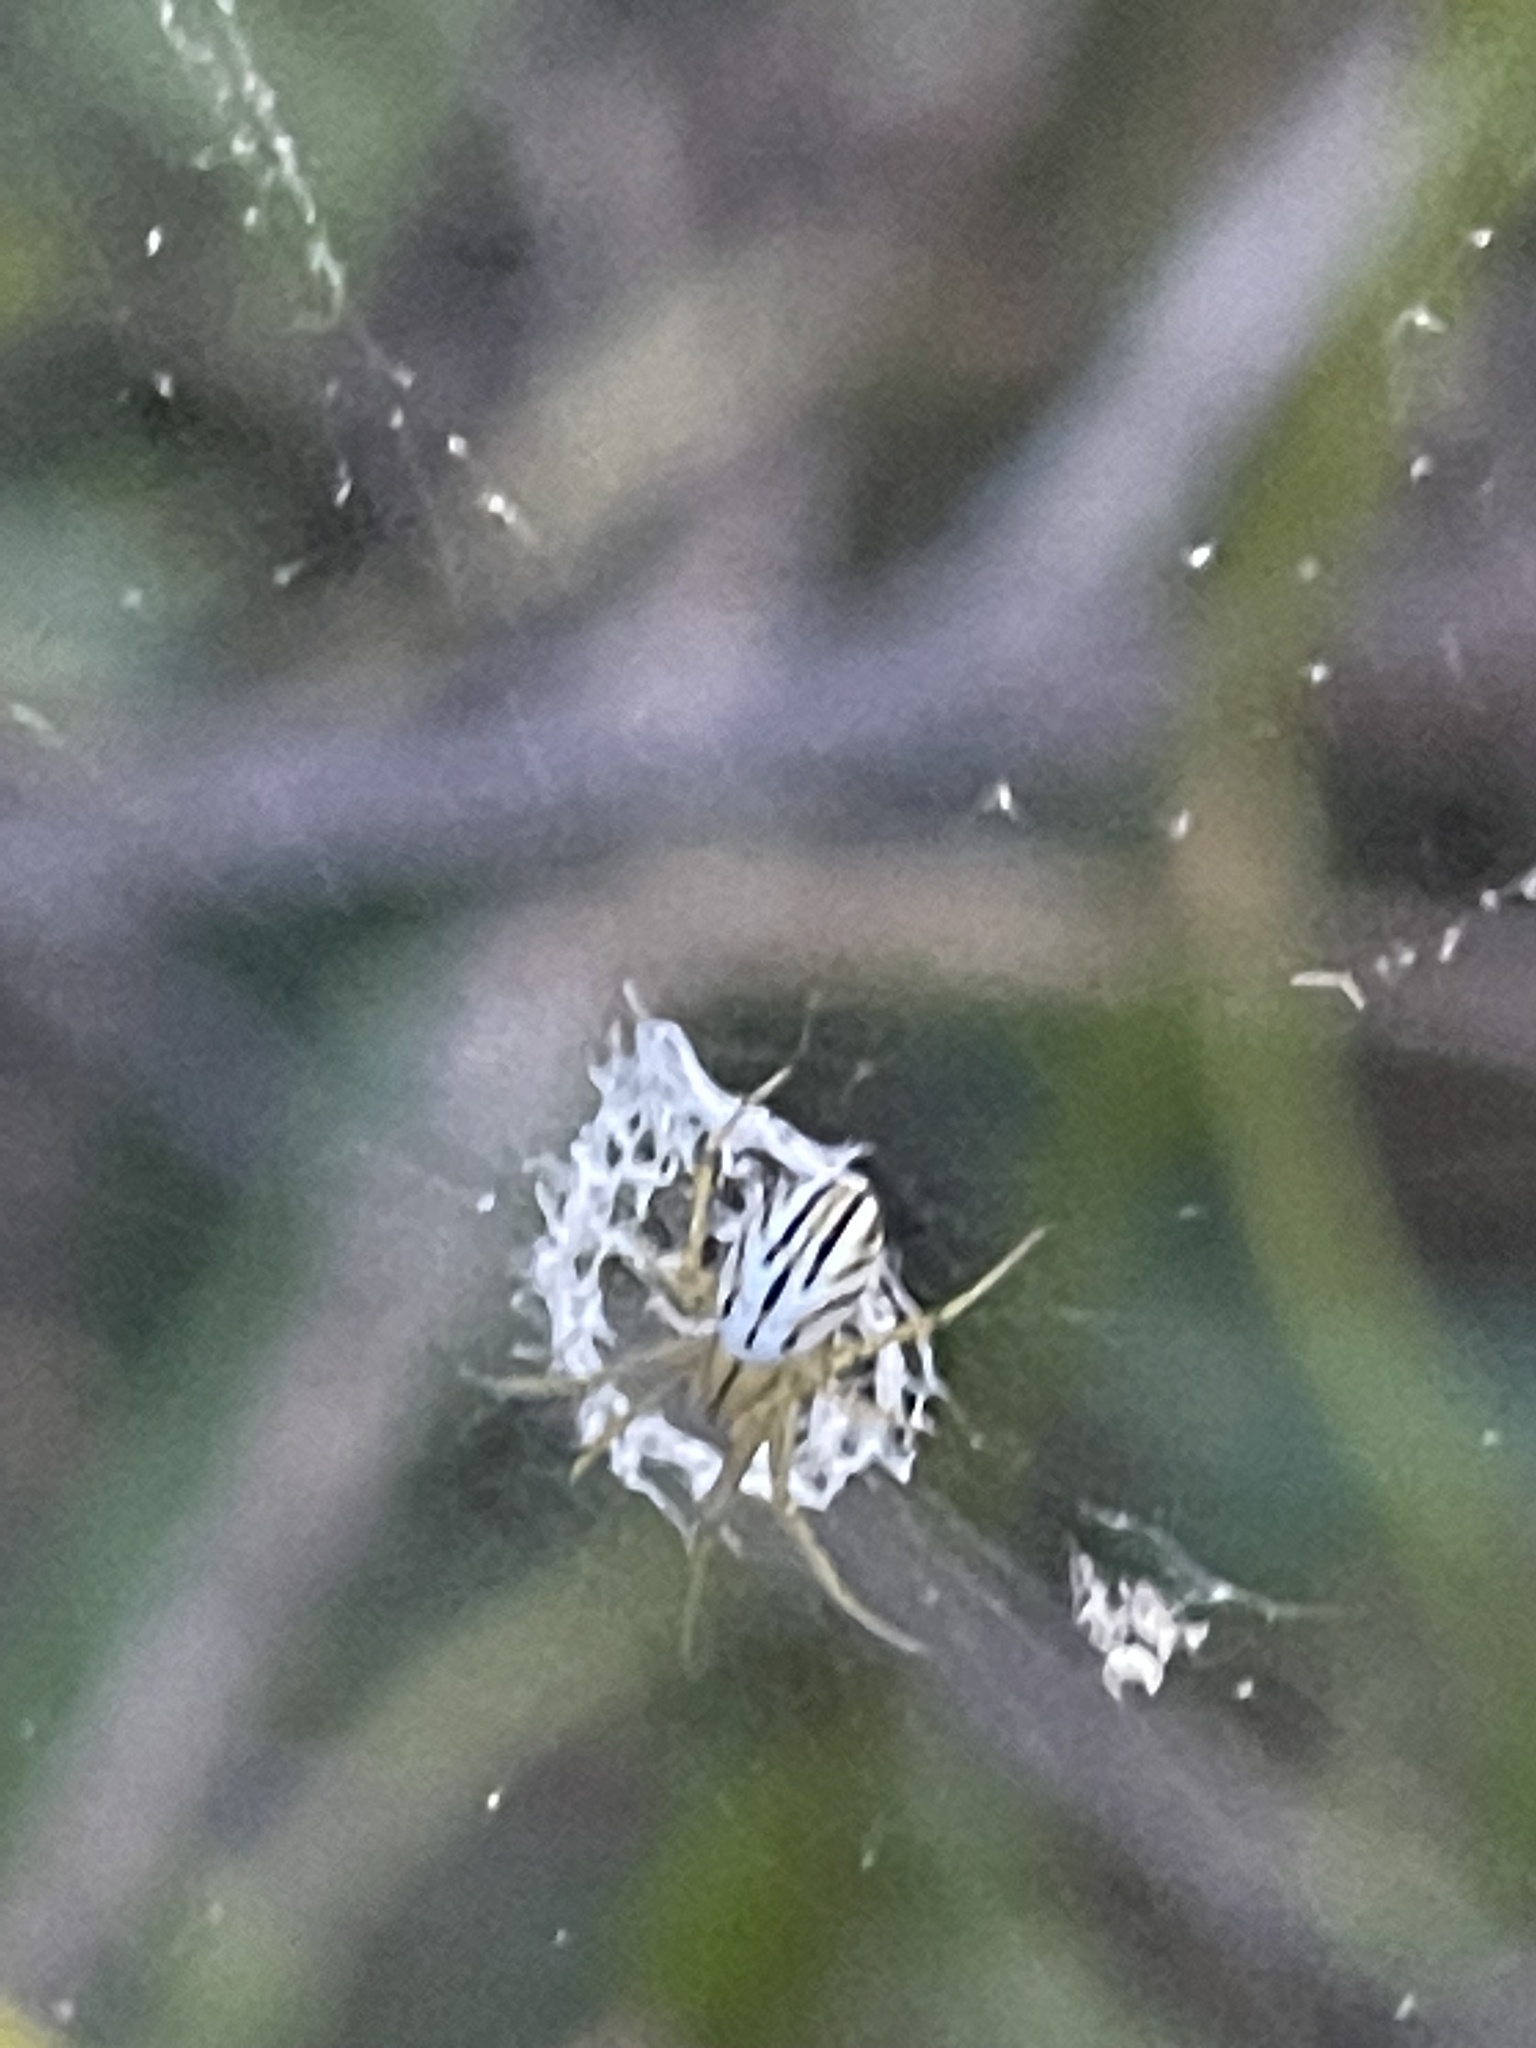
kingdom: Animalia
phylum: Arthropoda
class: Arachnida
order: Araneae
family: Araneidae
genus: Mangora
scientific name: Mangora gibberosa
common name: Lined orbweaver
